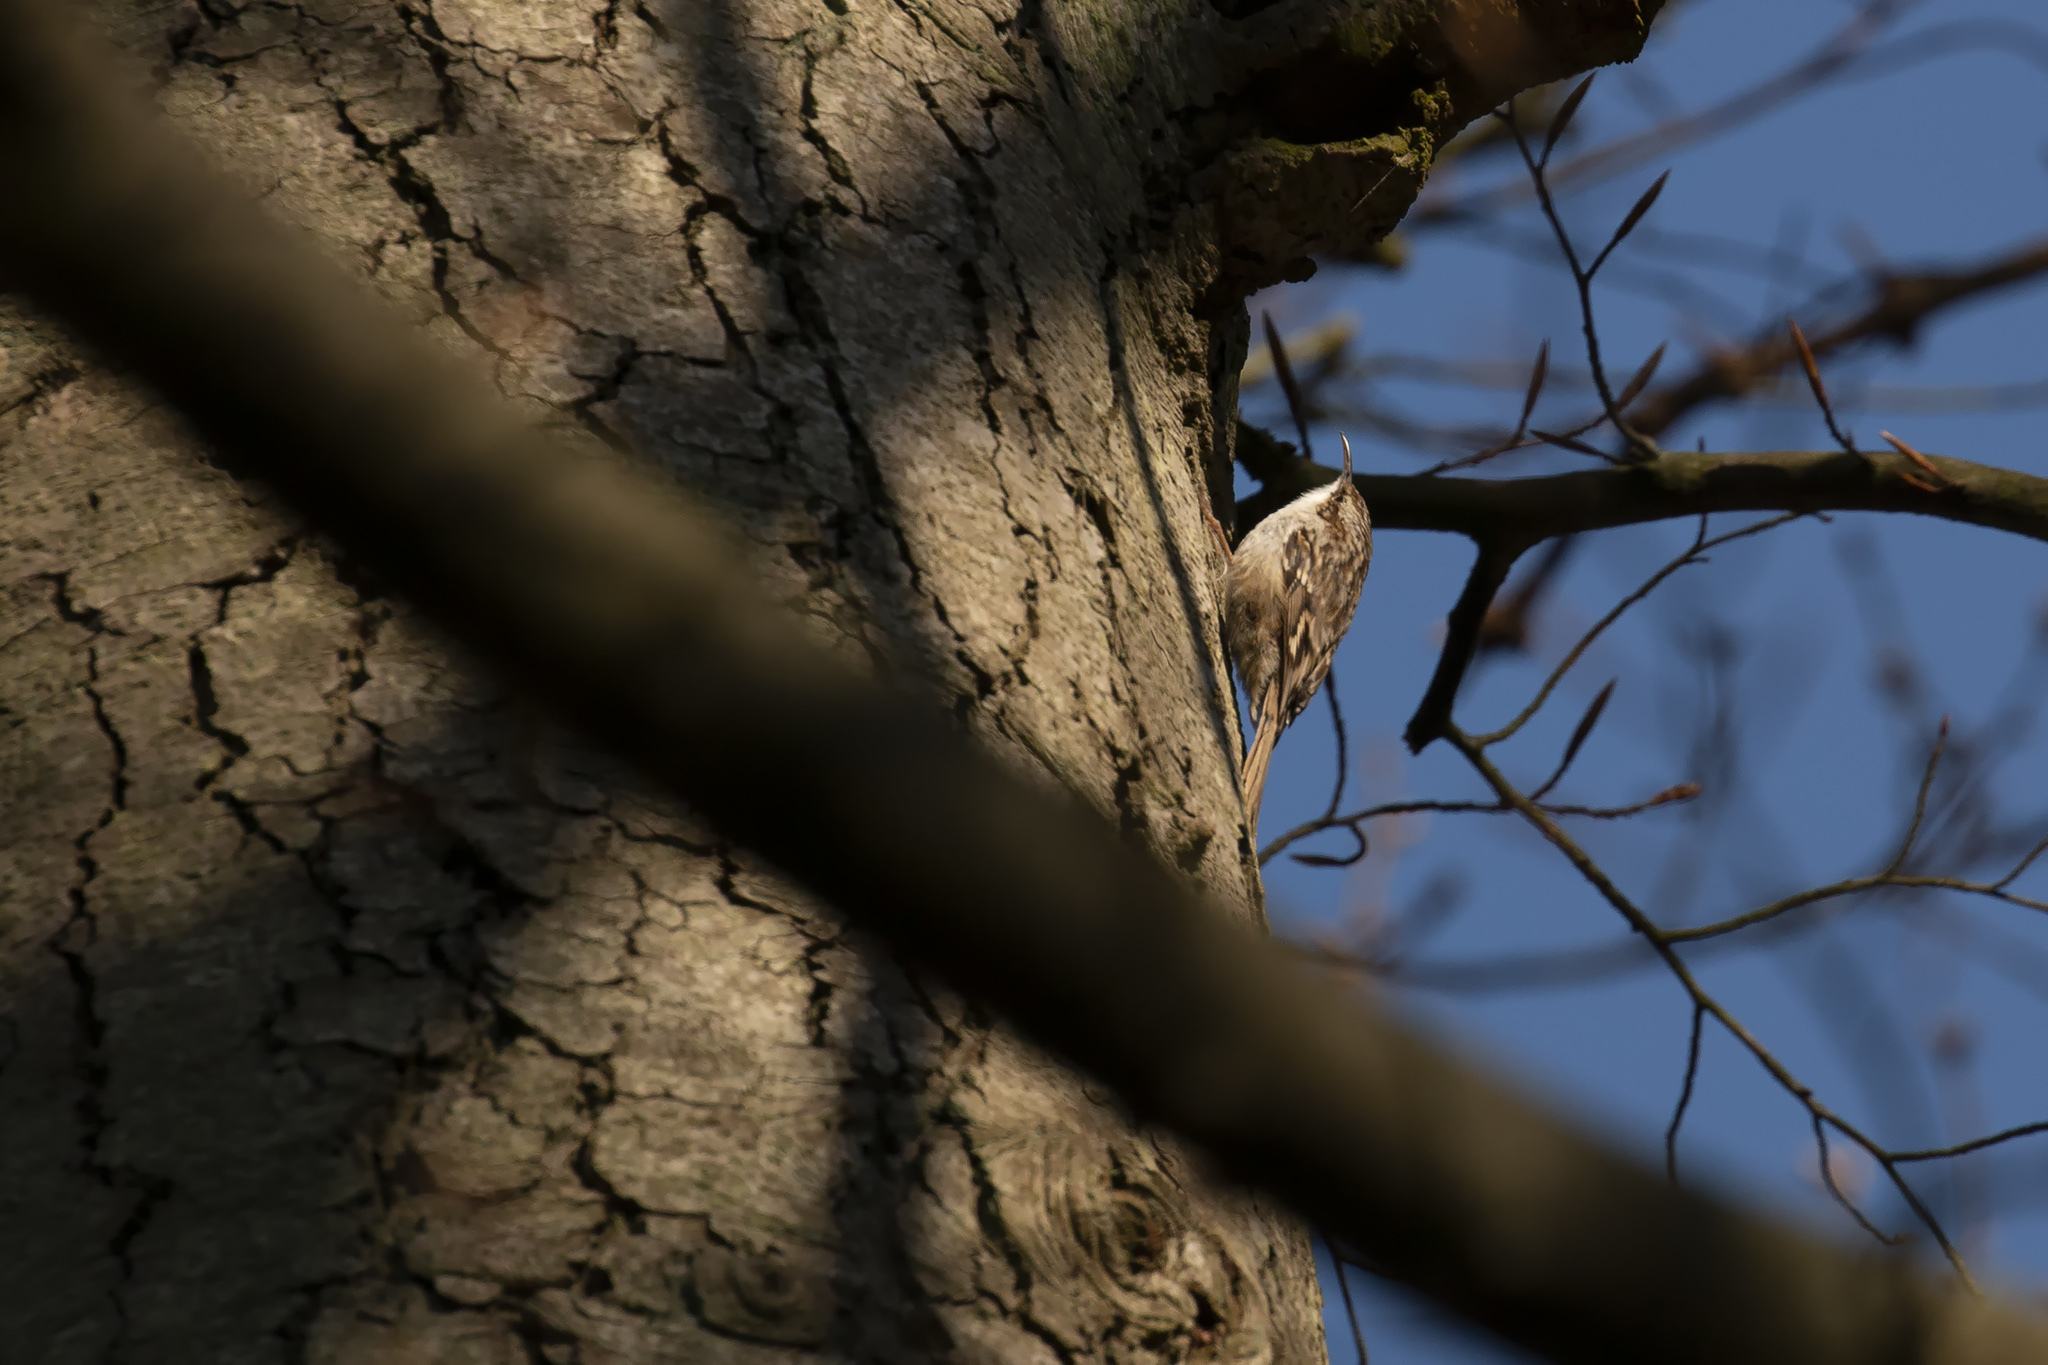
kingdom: Animalia
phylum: Chordata
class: Aves
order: Passeriformes
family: Certhiidae
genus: Certhia
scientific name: Certhia brachydactyla
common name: Short-toed treecreeper
